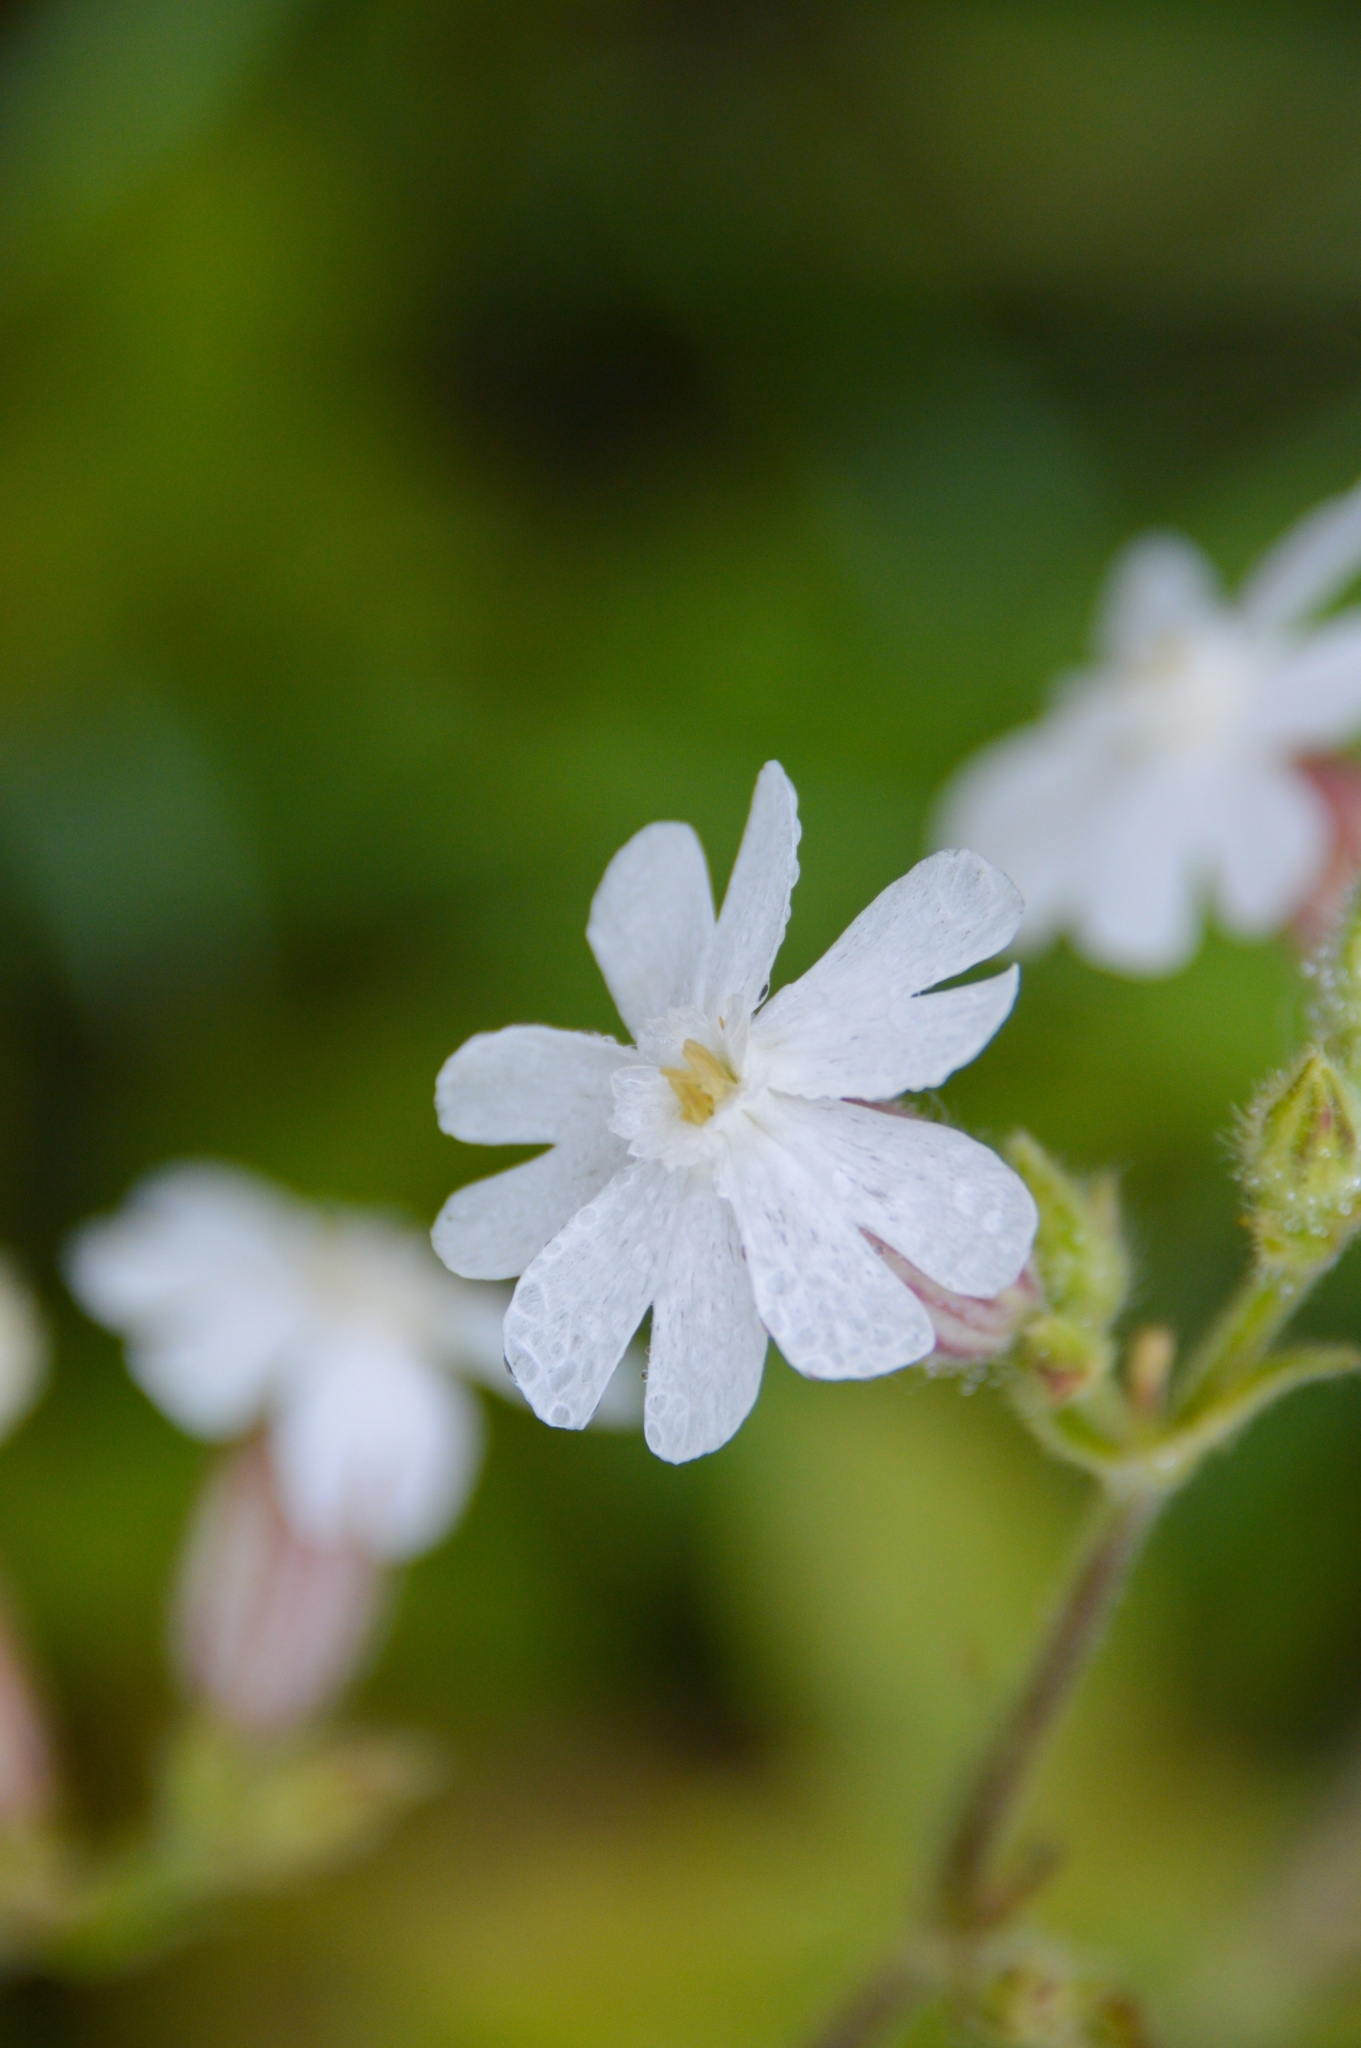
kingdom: Plantae
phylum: Tracheophyta
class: Magnoliopsida
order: Caryophyllales
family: Caryophyllaceae
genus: Silene
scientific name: Silene latifolia
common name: White campion
